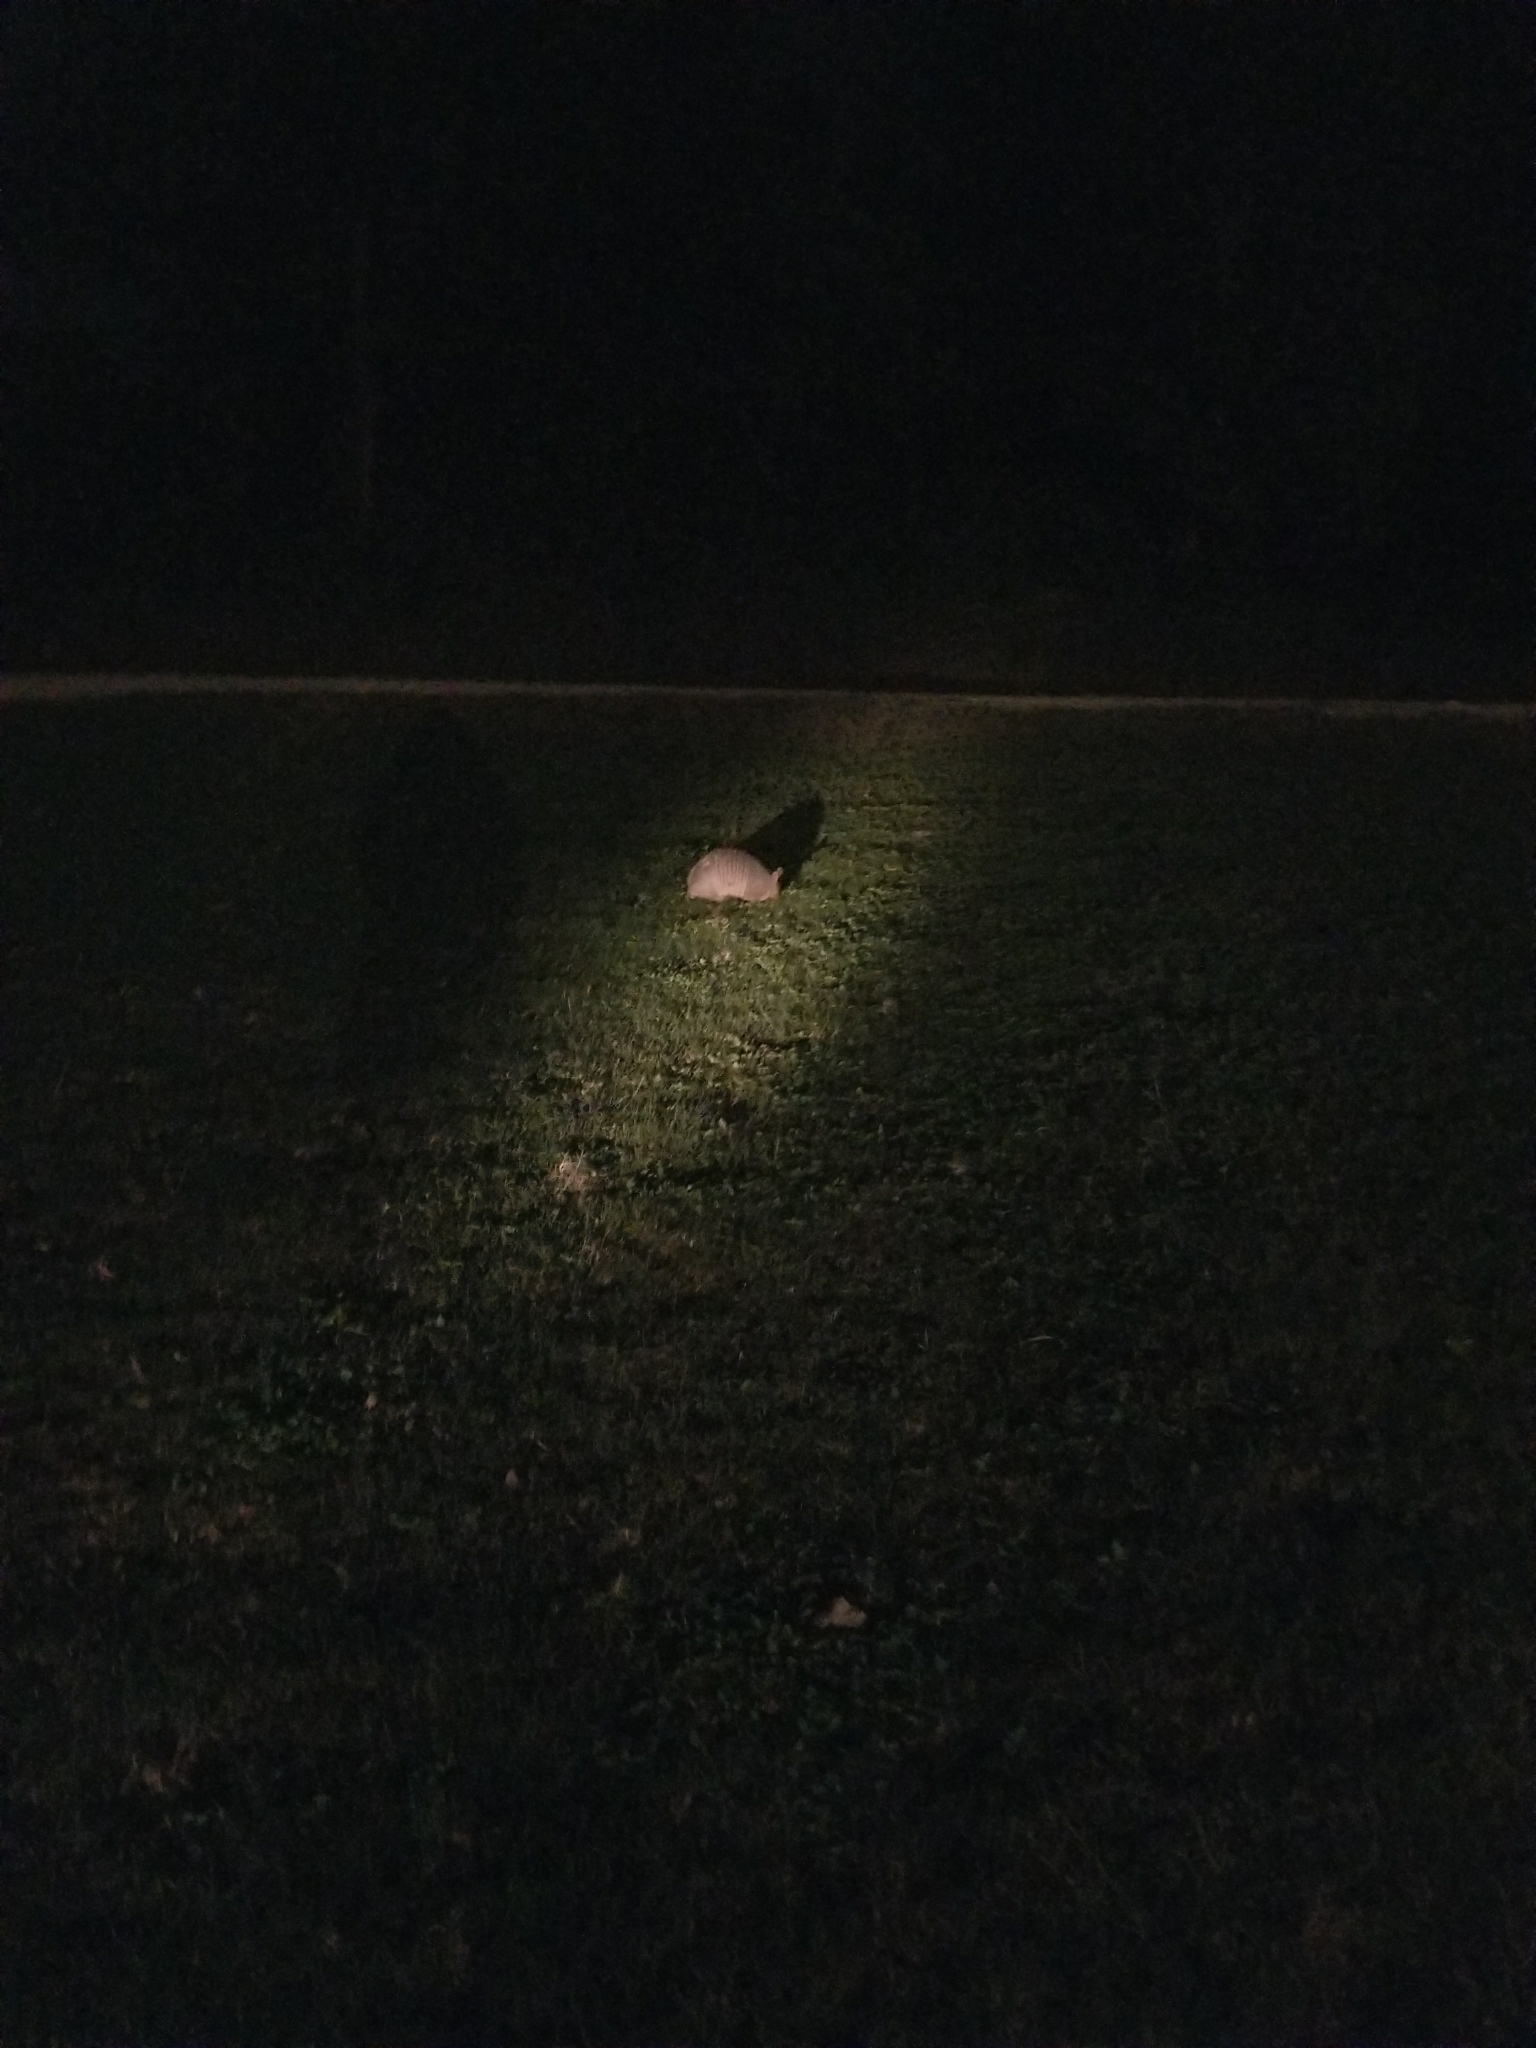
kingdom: Animalia
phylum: Chordata
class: Mammalia
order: Cingulata
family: Dasypodidae
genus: Dasypus
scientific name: Dasypus novemcinctus
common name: Nine-banded armadillo
